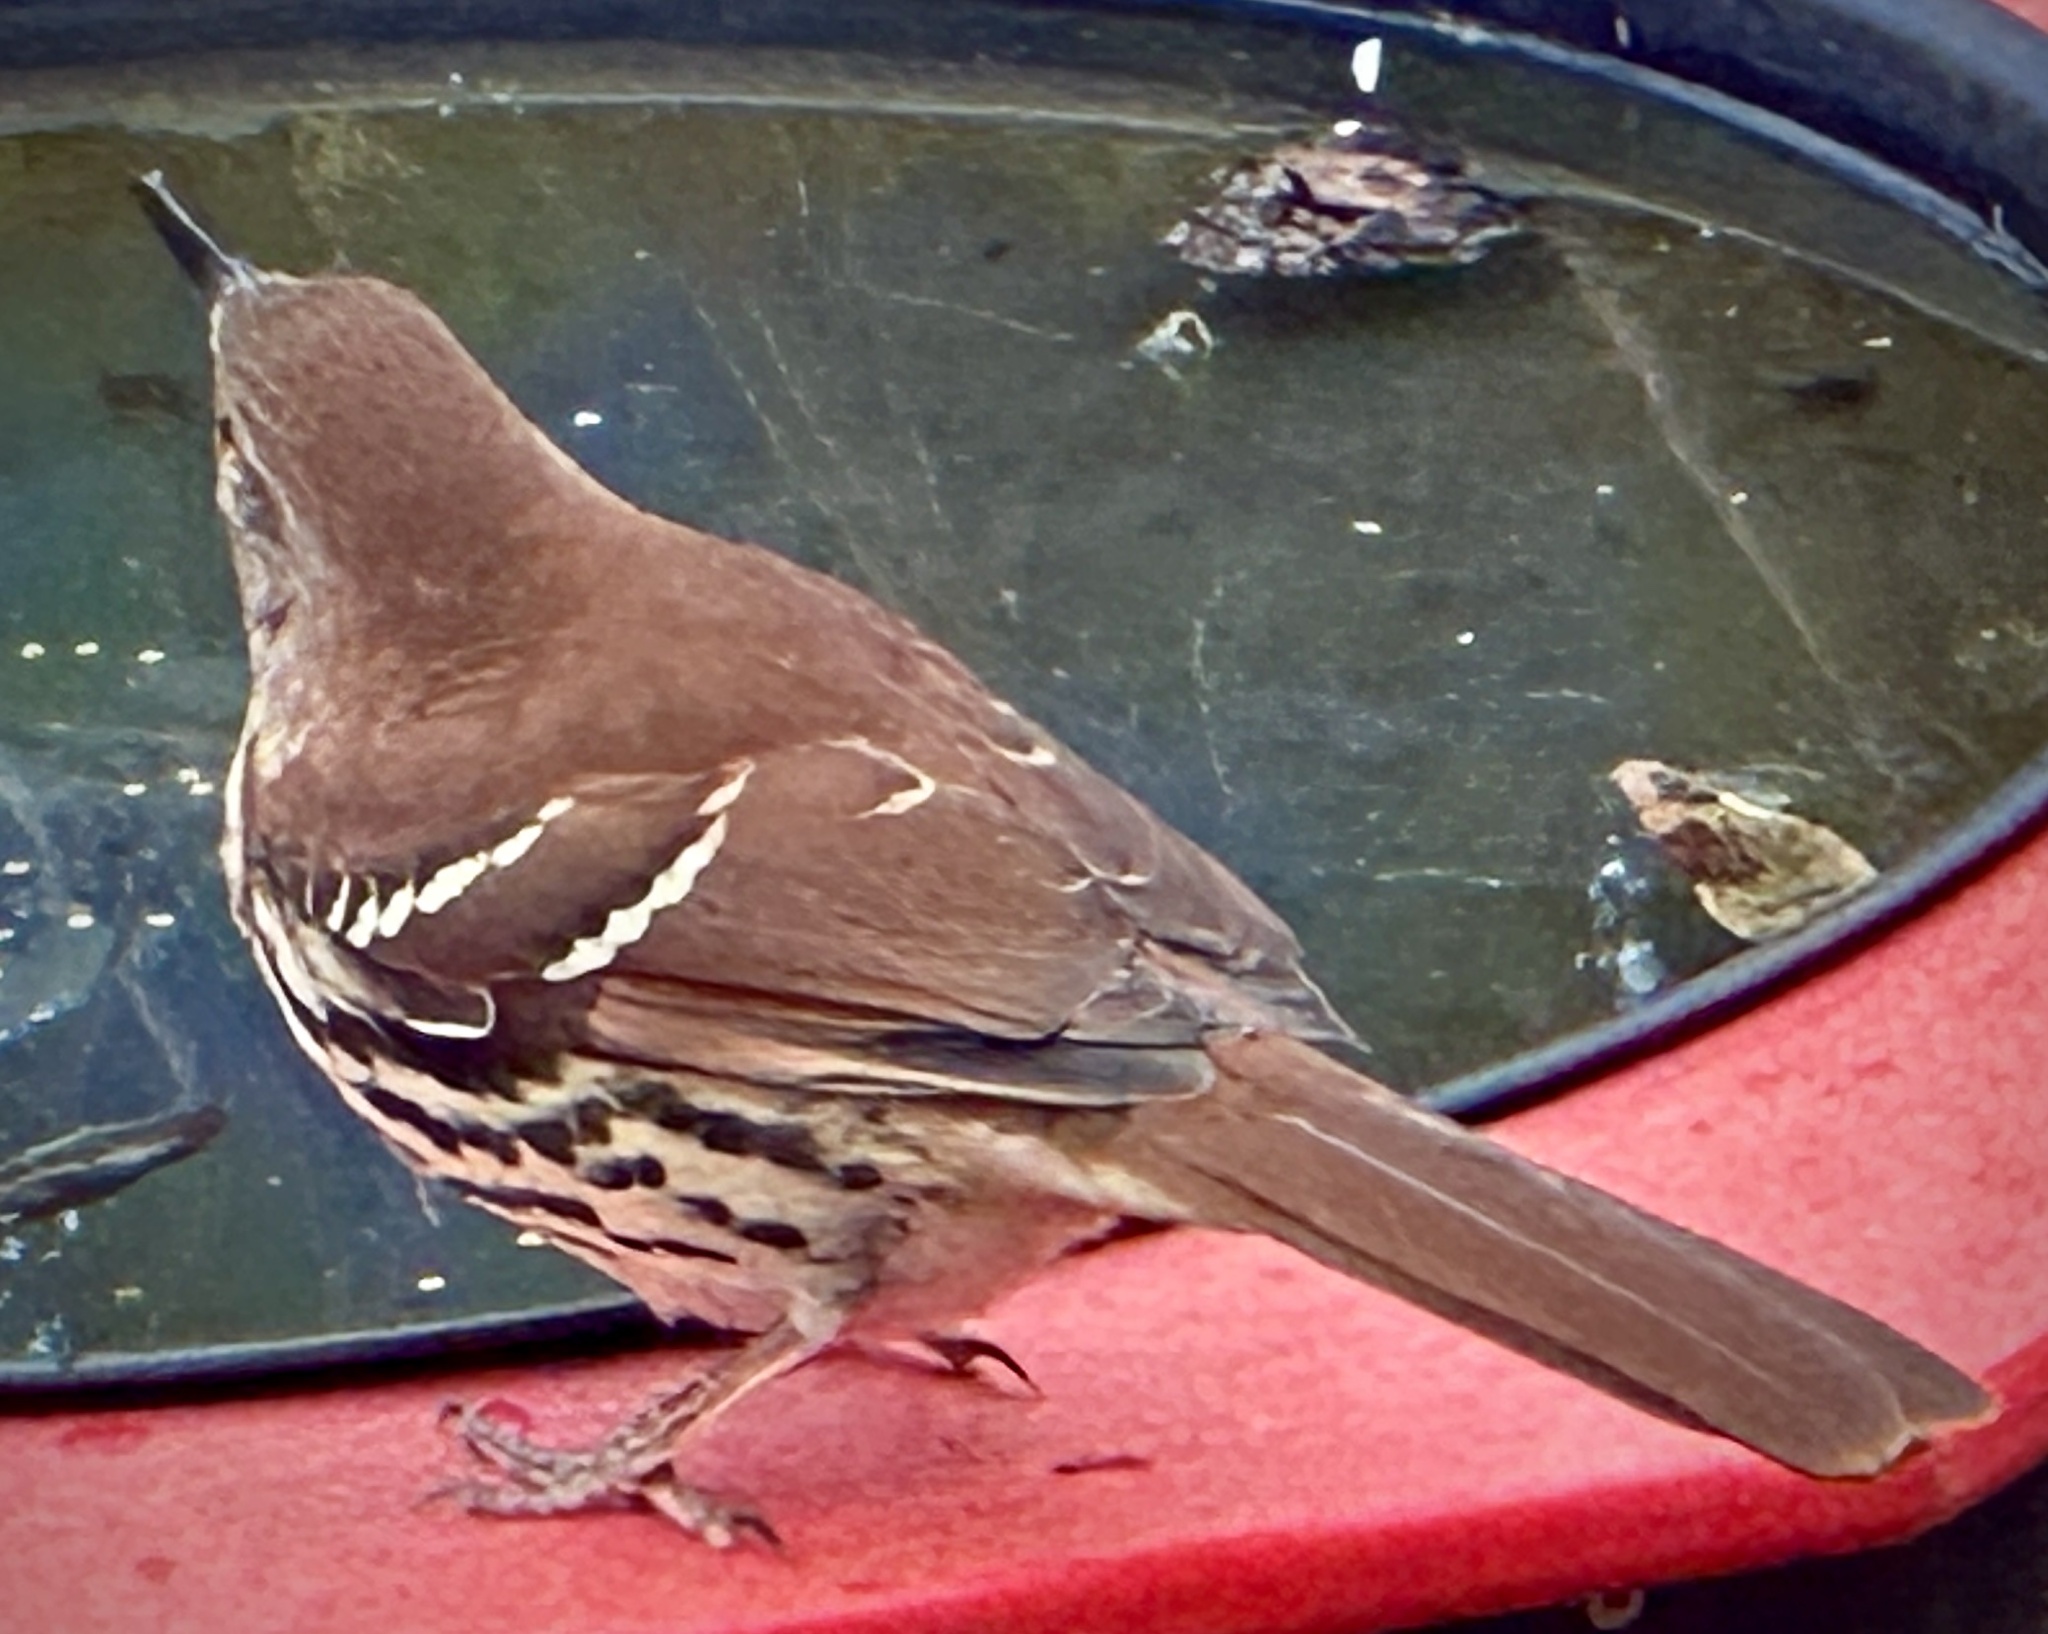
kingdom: Animalia
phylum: Chordata
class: Aves
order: Passeriformes
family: Mimidae
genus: Toxostoma
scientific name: Toxostoma rufum
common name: Brown thrasher
